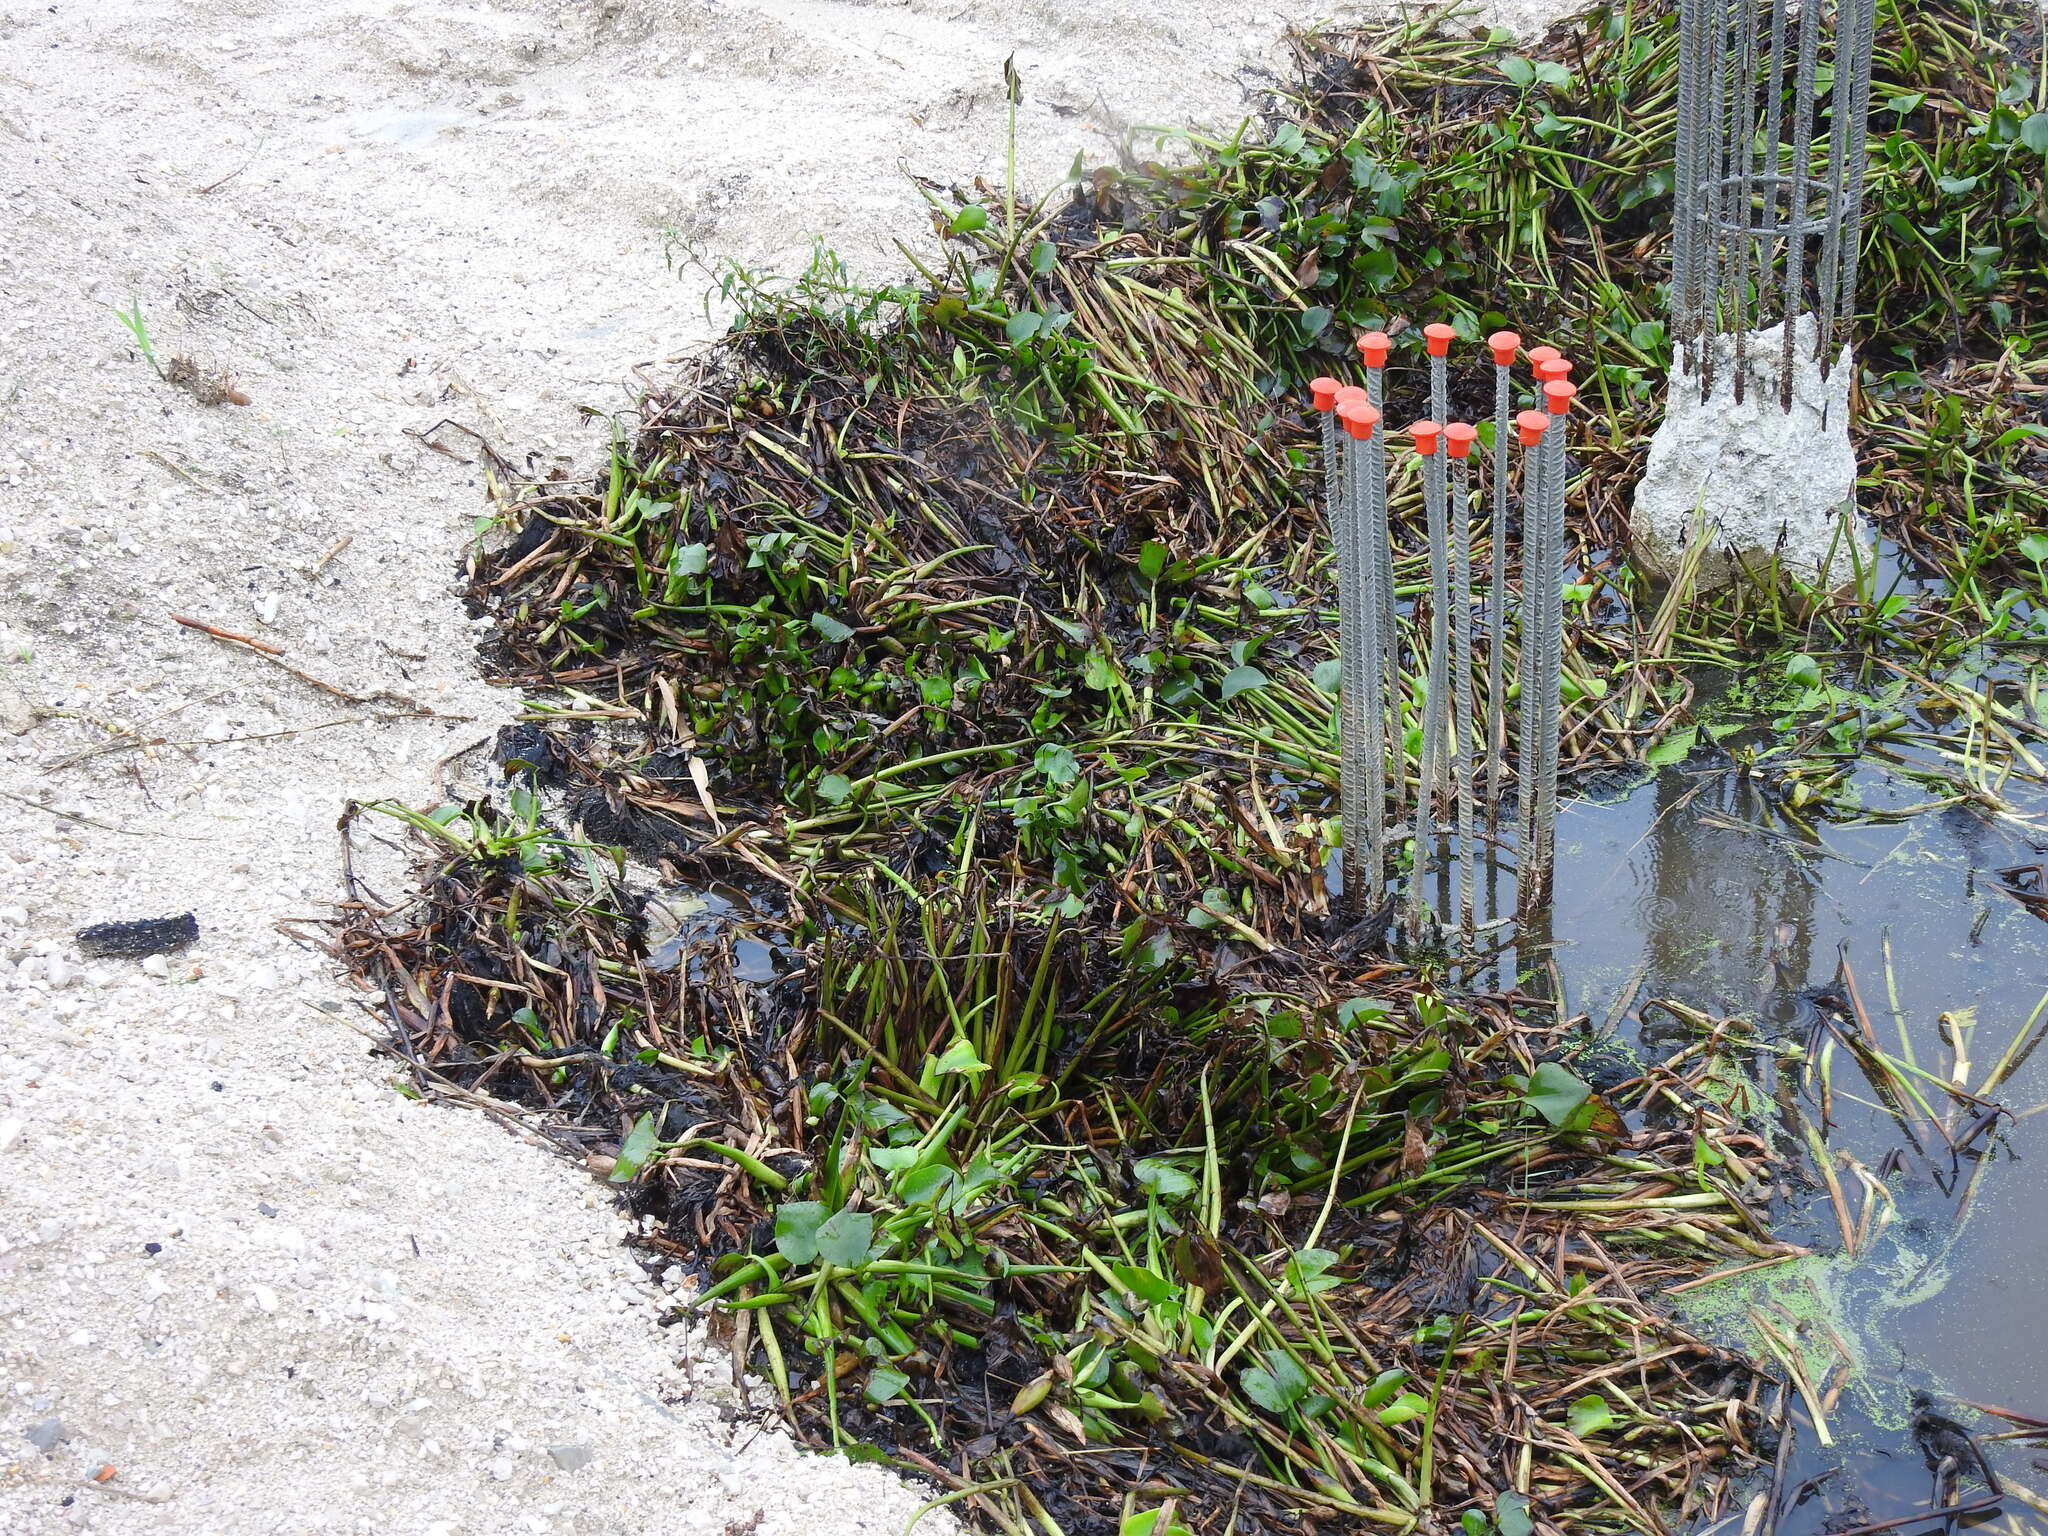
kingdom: Plantae
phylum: Tracheophyta
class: Liliopsida
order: Commelinales
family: Pontederiaceae
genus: Pontederia
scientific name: Pontederia crassipes
